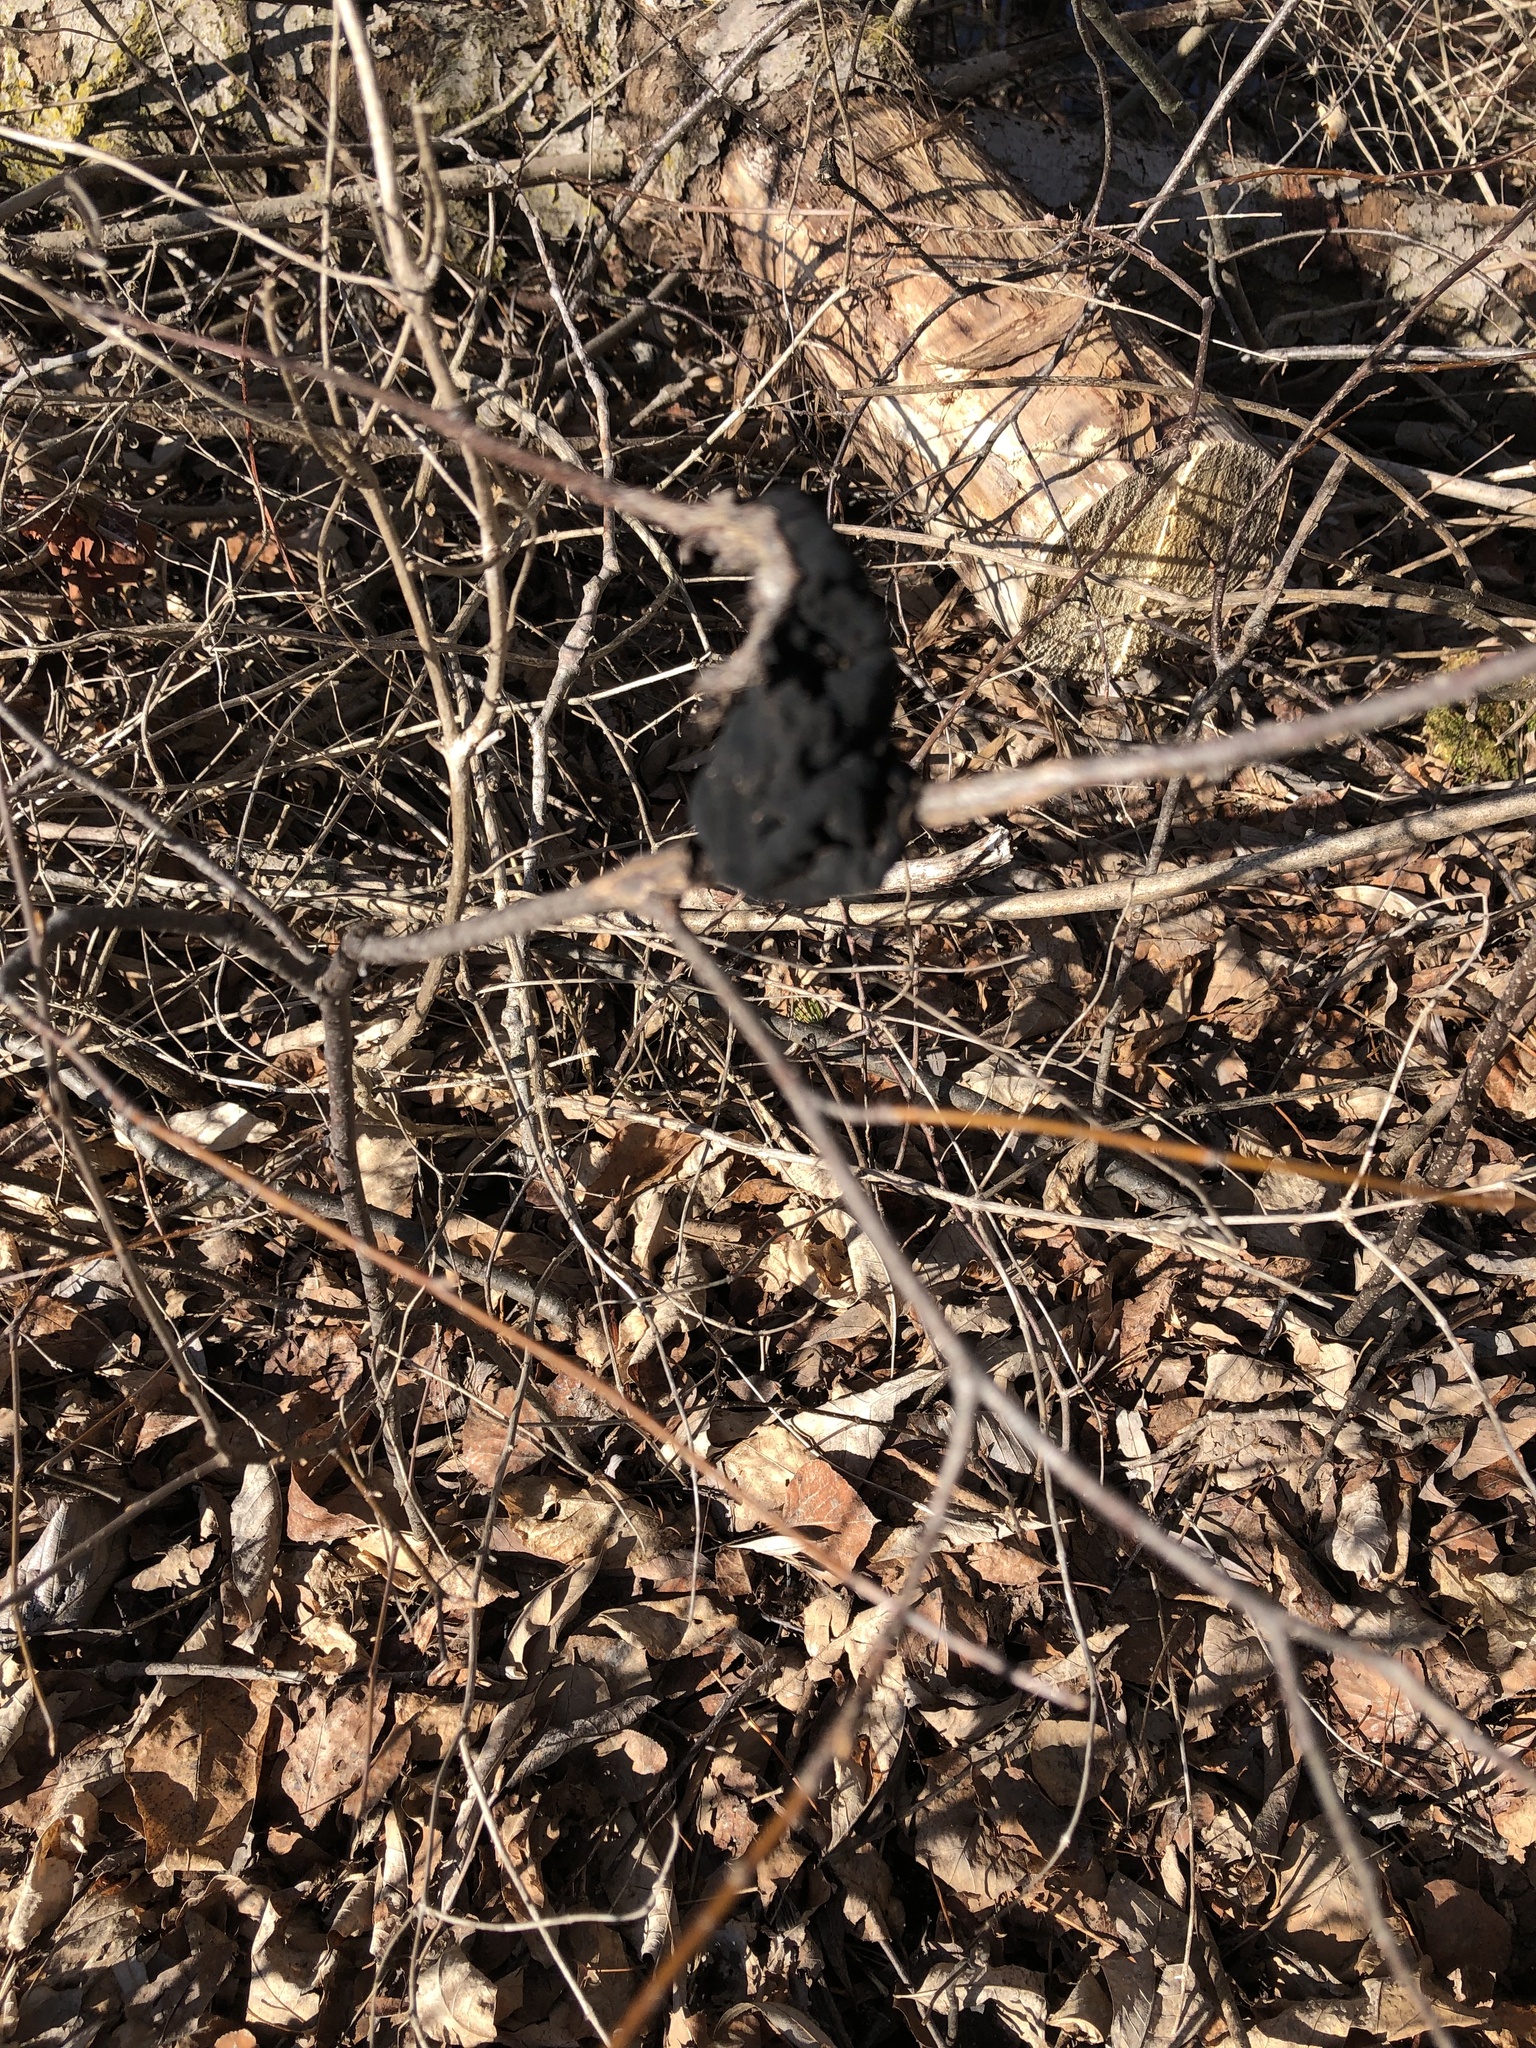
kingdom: Fungi
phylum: Ascomycota
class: Dothideomycetes
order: Venturiales
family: Venturiaceae
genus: Apiosporina
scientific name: Apiosporina morbosa
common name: Black knot
